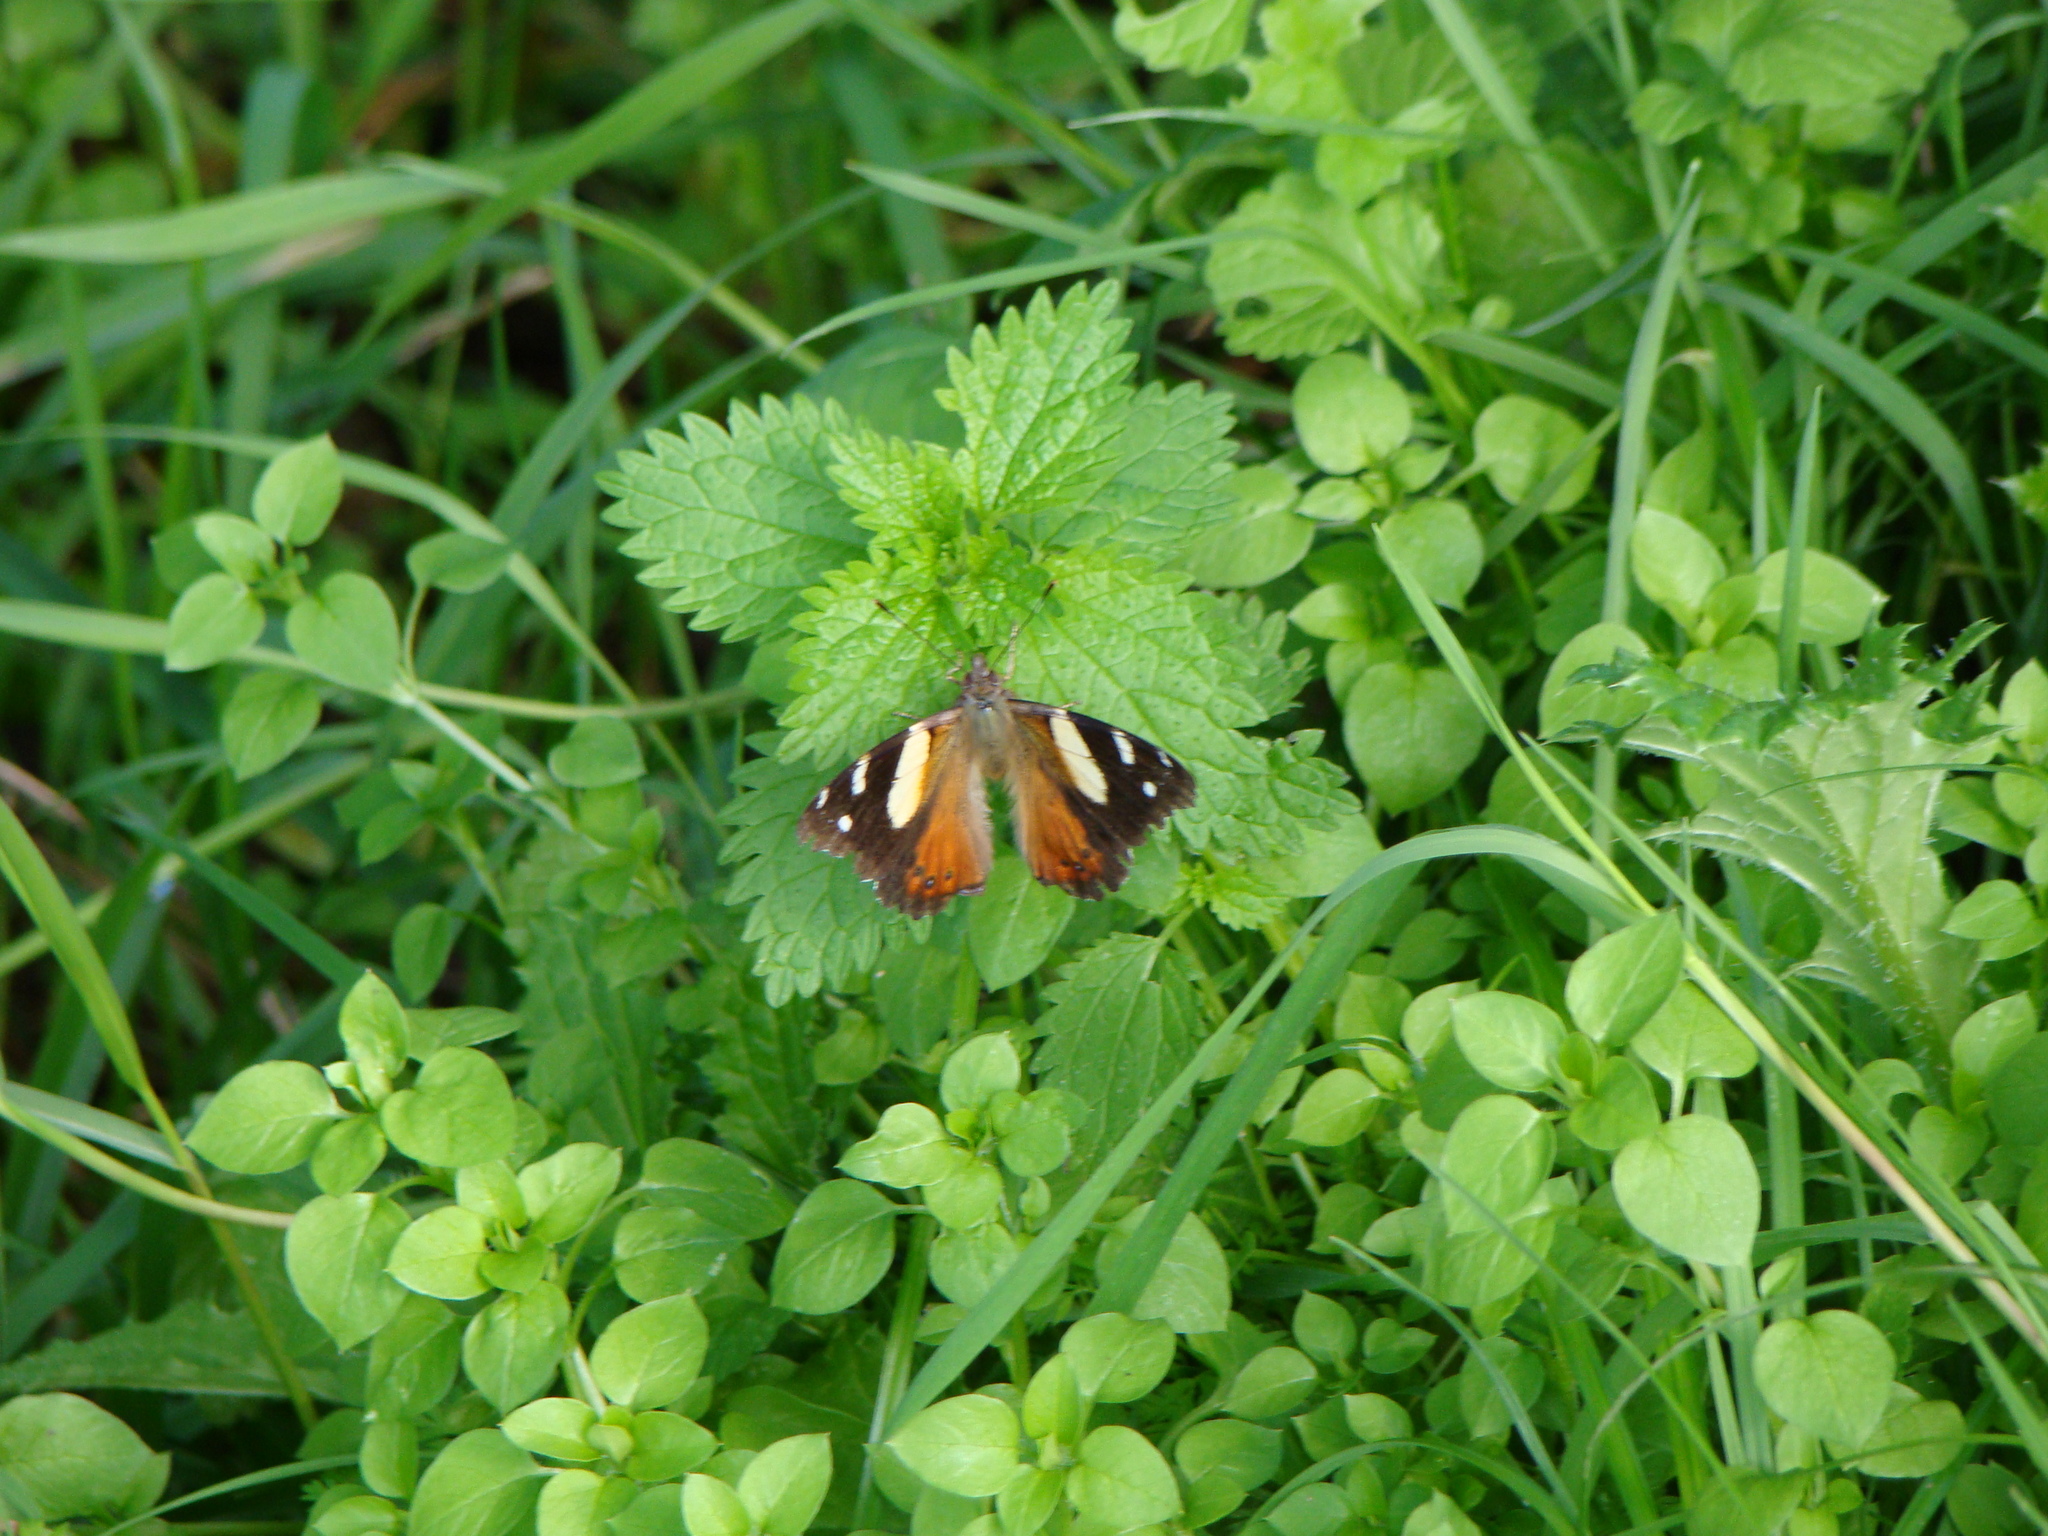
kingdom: Animalia
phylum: Arthropoda
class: Insecta
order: Lepidoptera
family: Nymphalidae
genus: Vanessa
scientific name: Vanessa itea
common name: Yellow admiral
